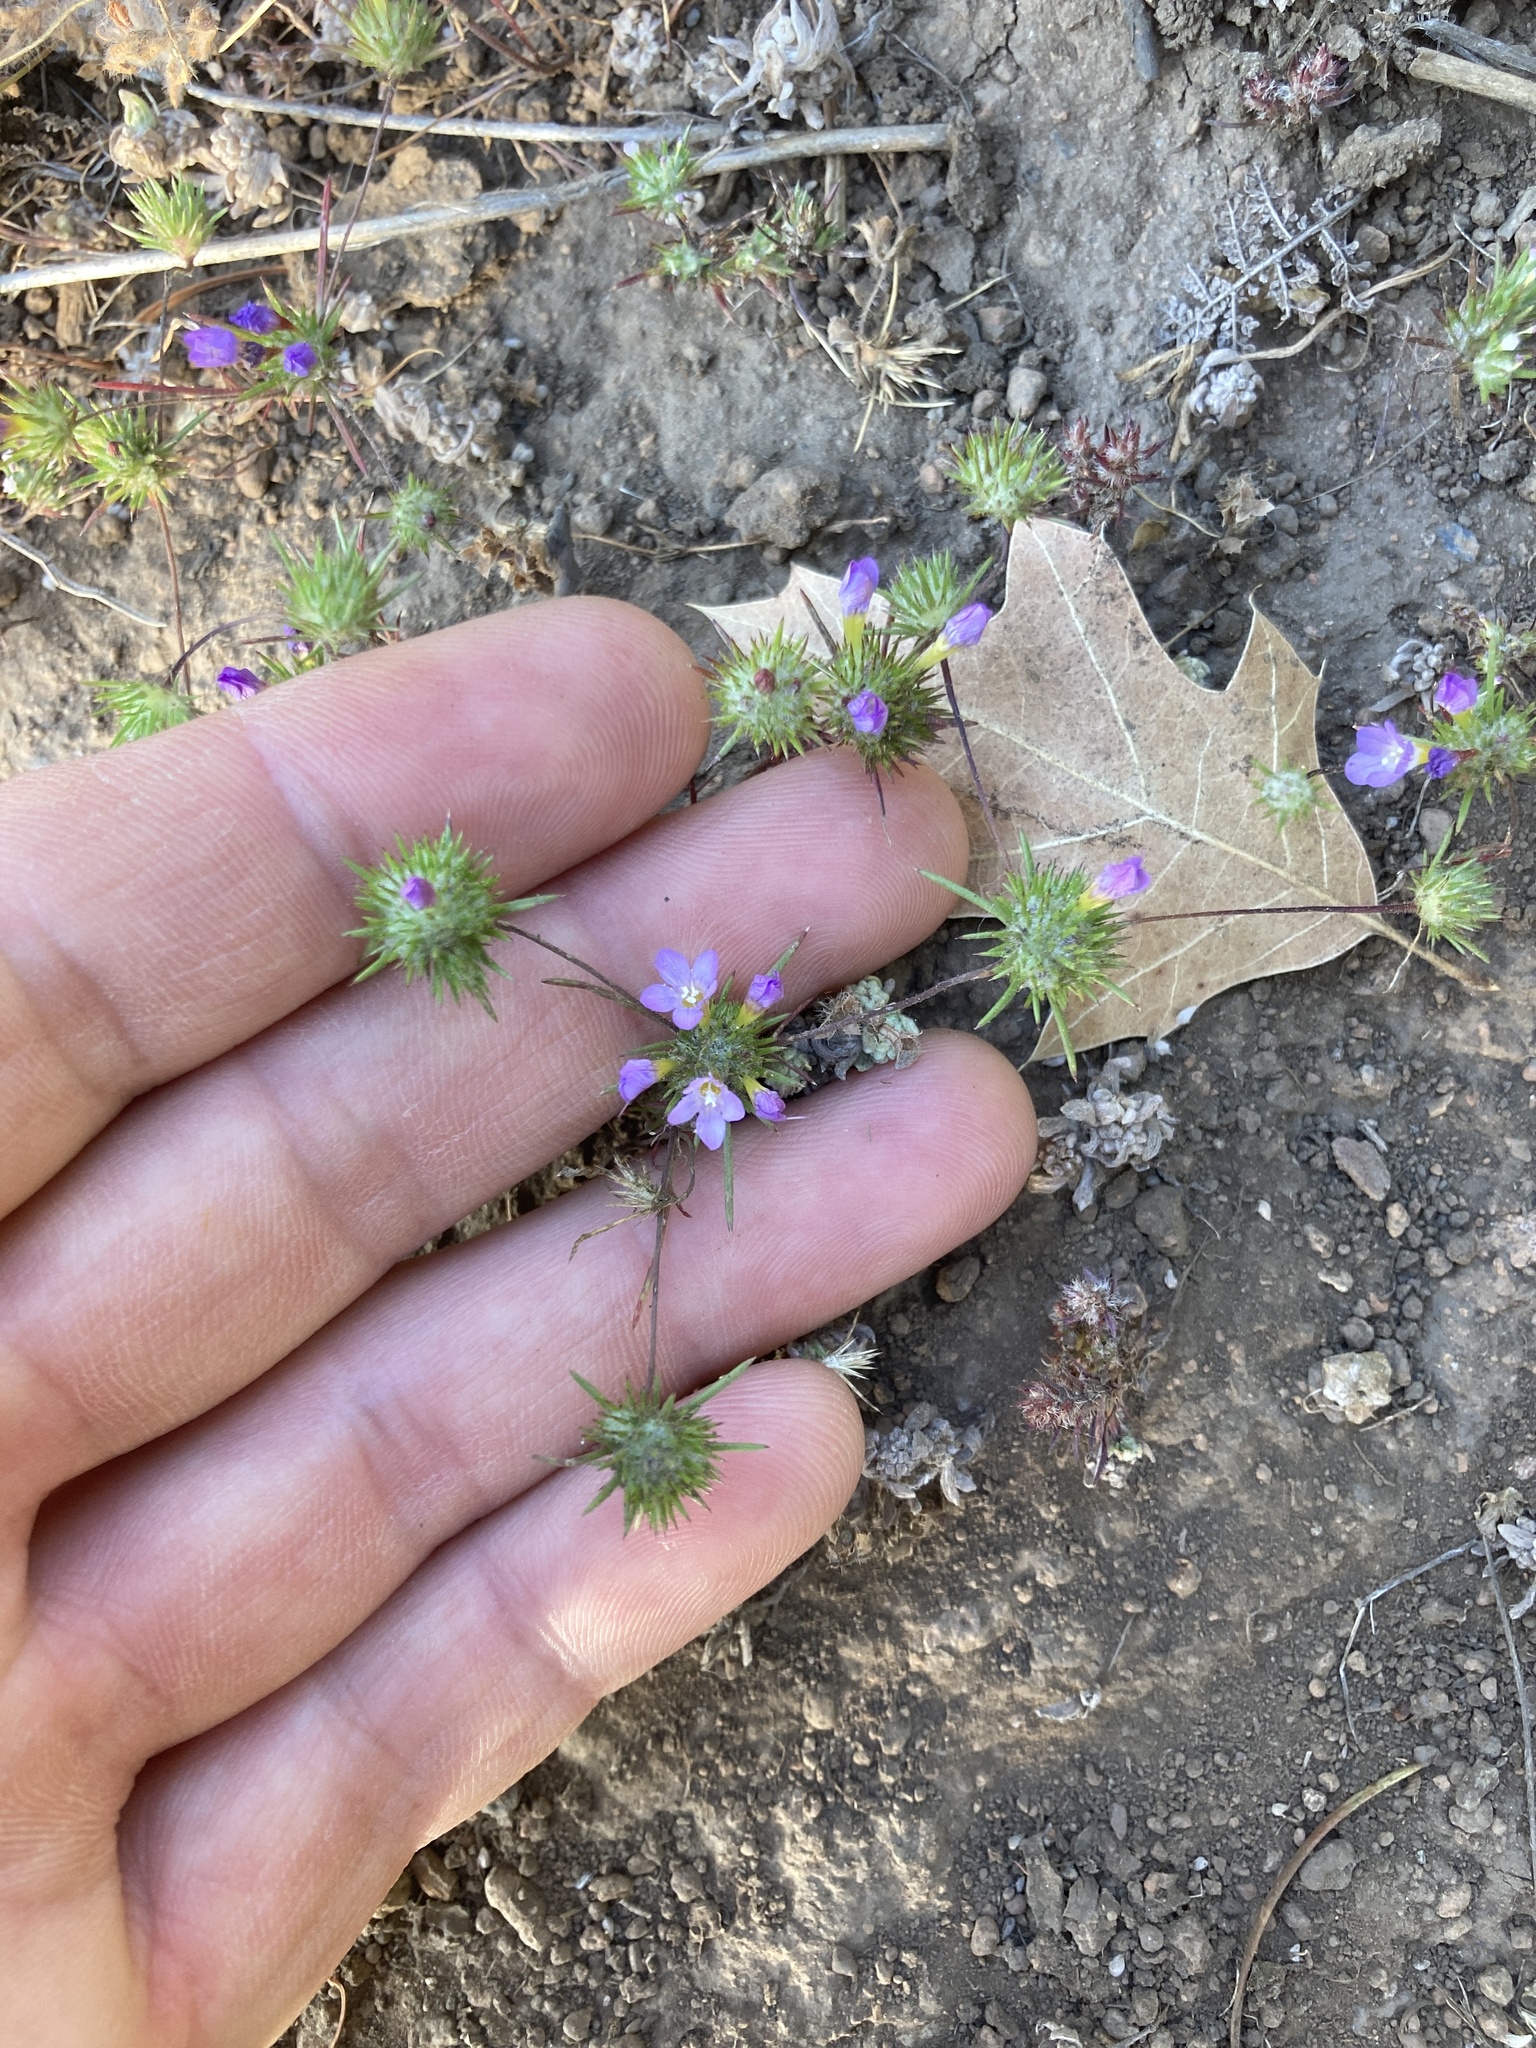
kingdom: Plantae
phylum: Tracheophyta
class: Magnoliopsida
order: Ericales
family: Polemoniaceae
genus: Navarretia
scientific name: Navarretia prolifera
